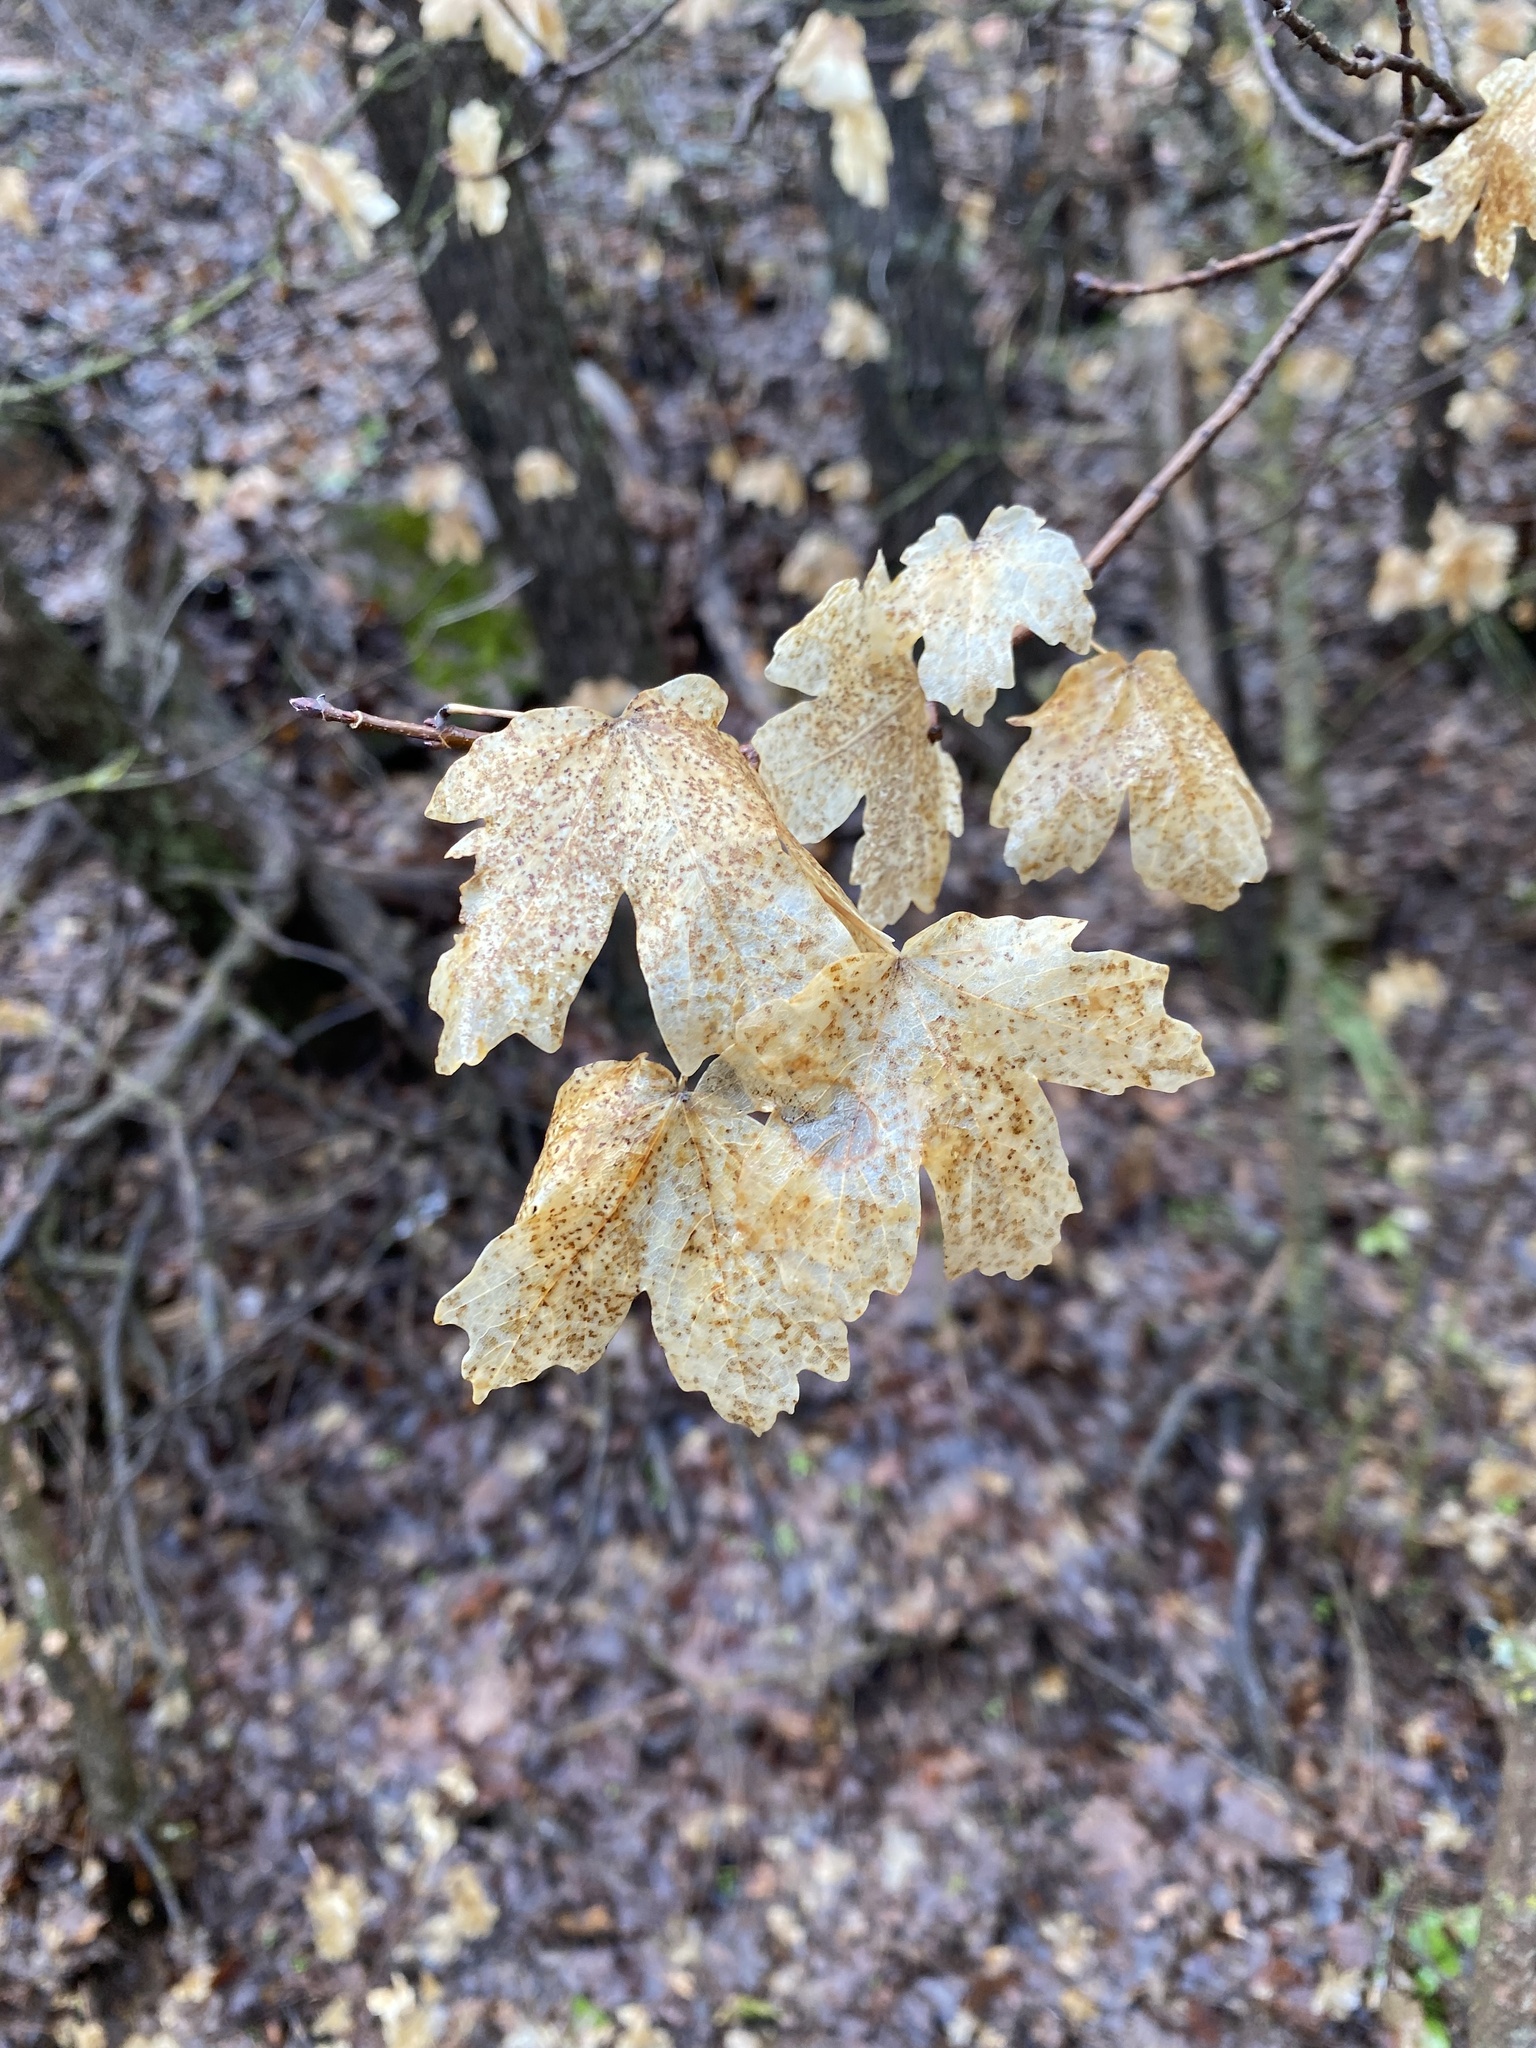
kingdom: Plantae
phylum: Tracheophyta
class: Magnoliopsida
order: Sapindales
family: Sapindaceae
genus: Acer
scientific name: Acer grandidentatum
